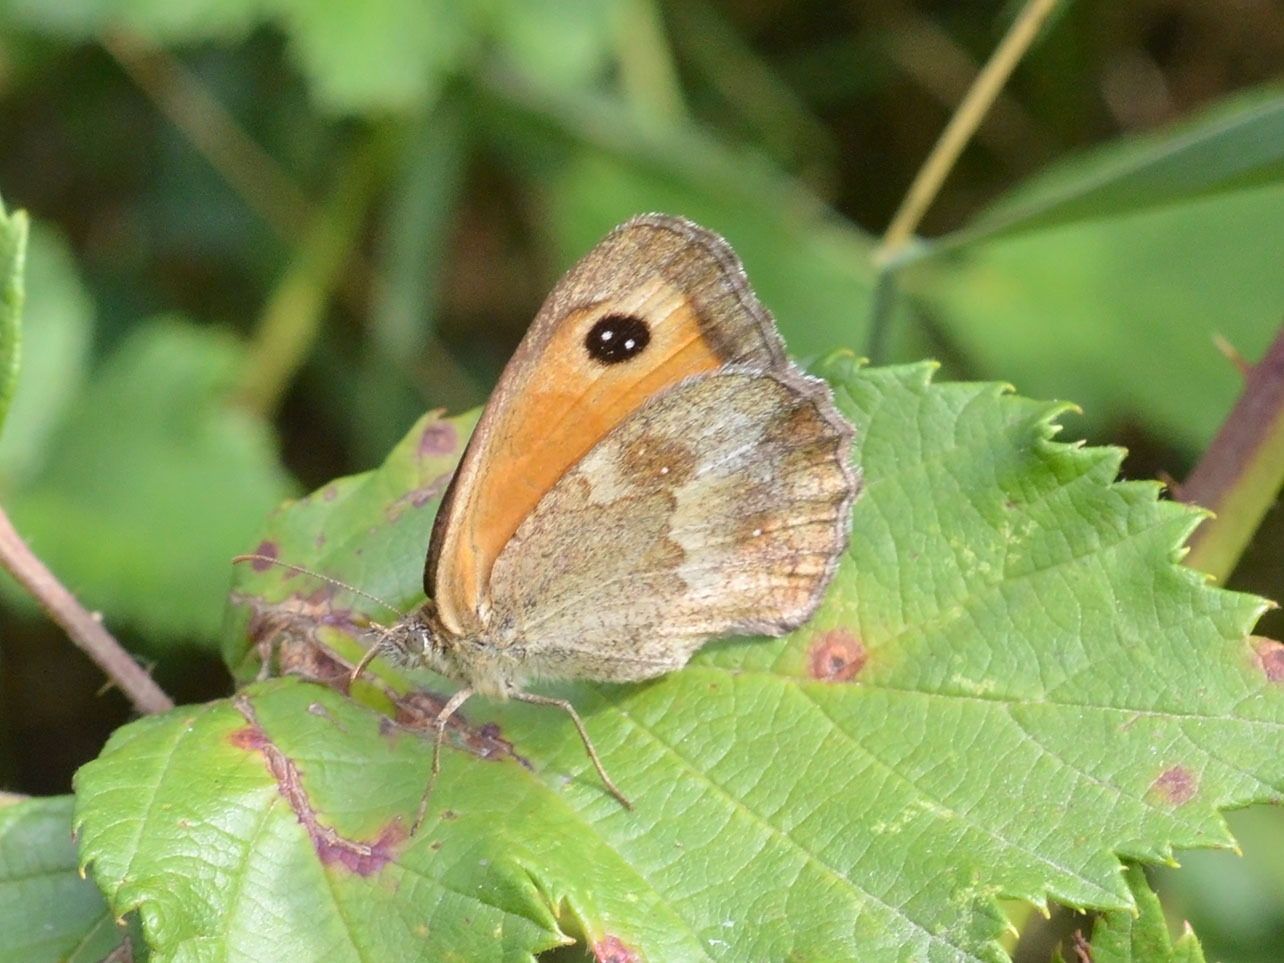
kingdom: Animalia
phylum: Arthropoda
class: Insecta
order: Lepidoptera
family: Nymphalidae
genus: Pyronia
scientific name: Pyronia tithonus
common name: Gatekeeper
